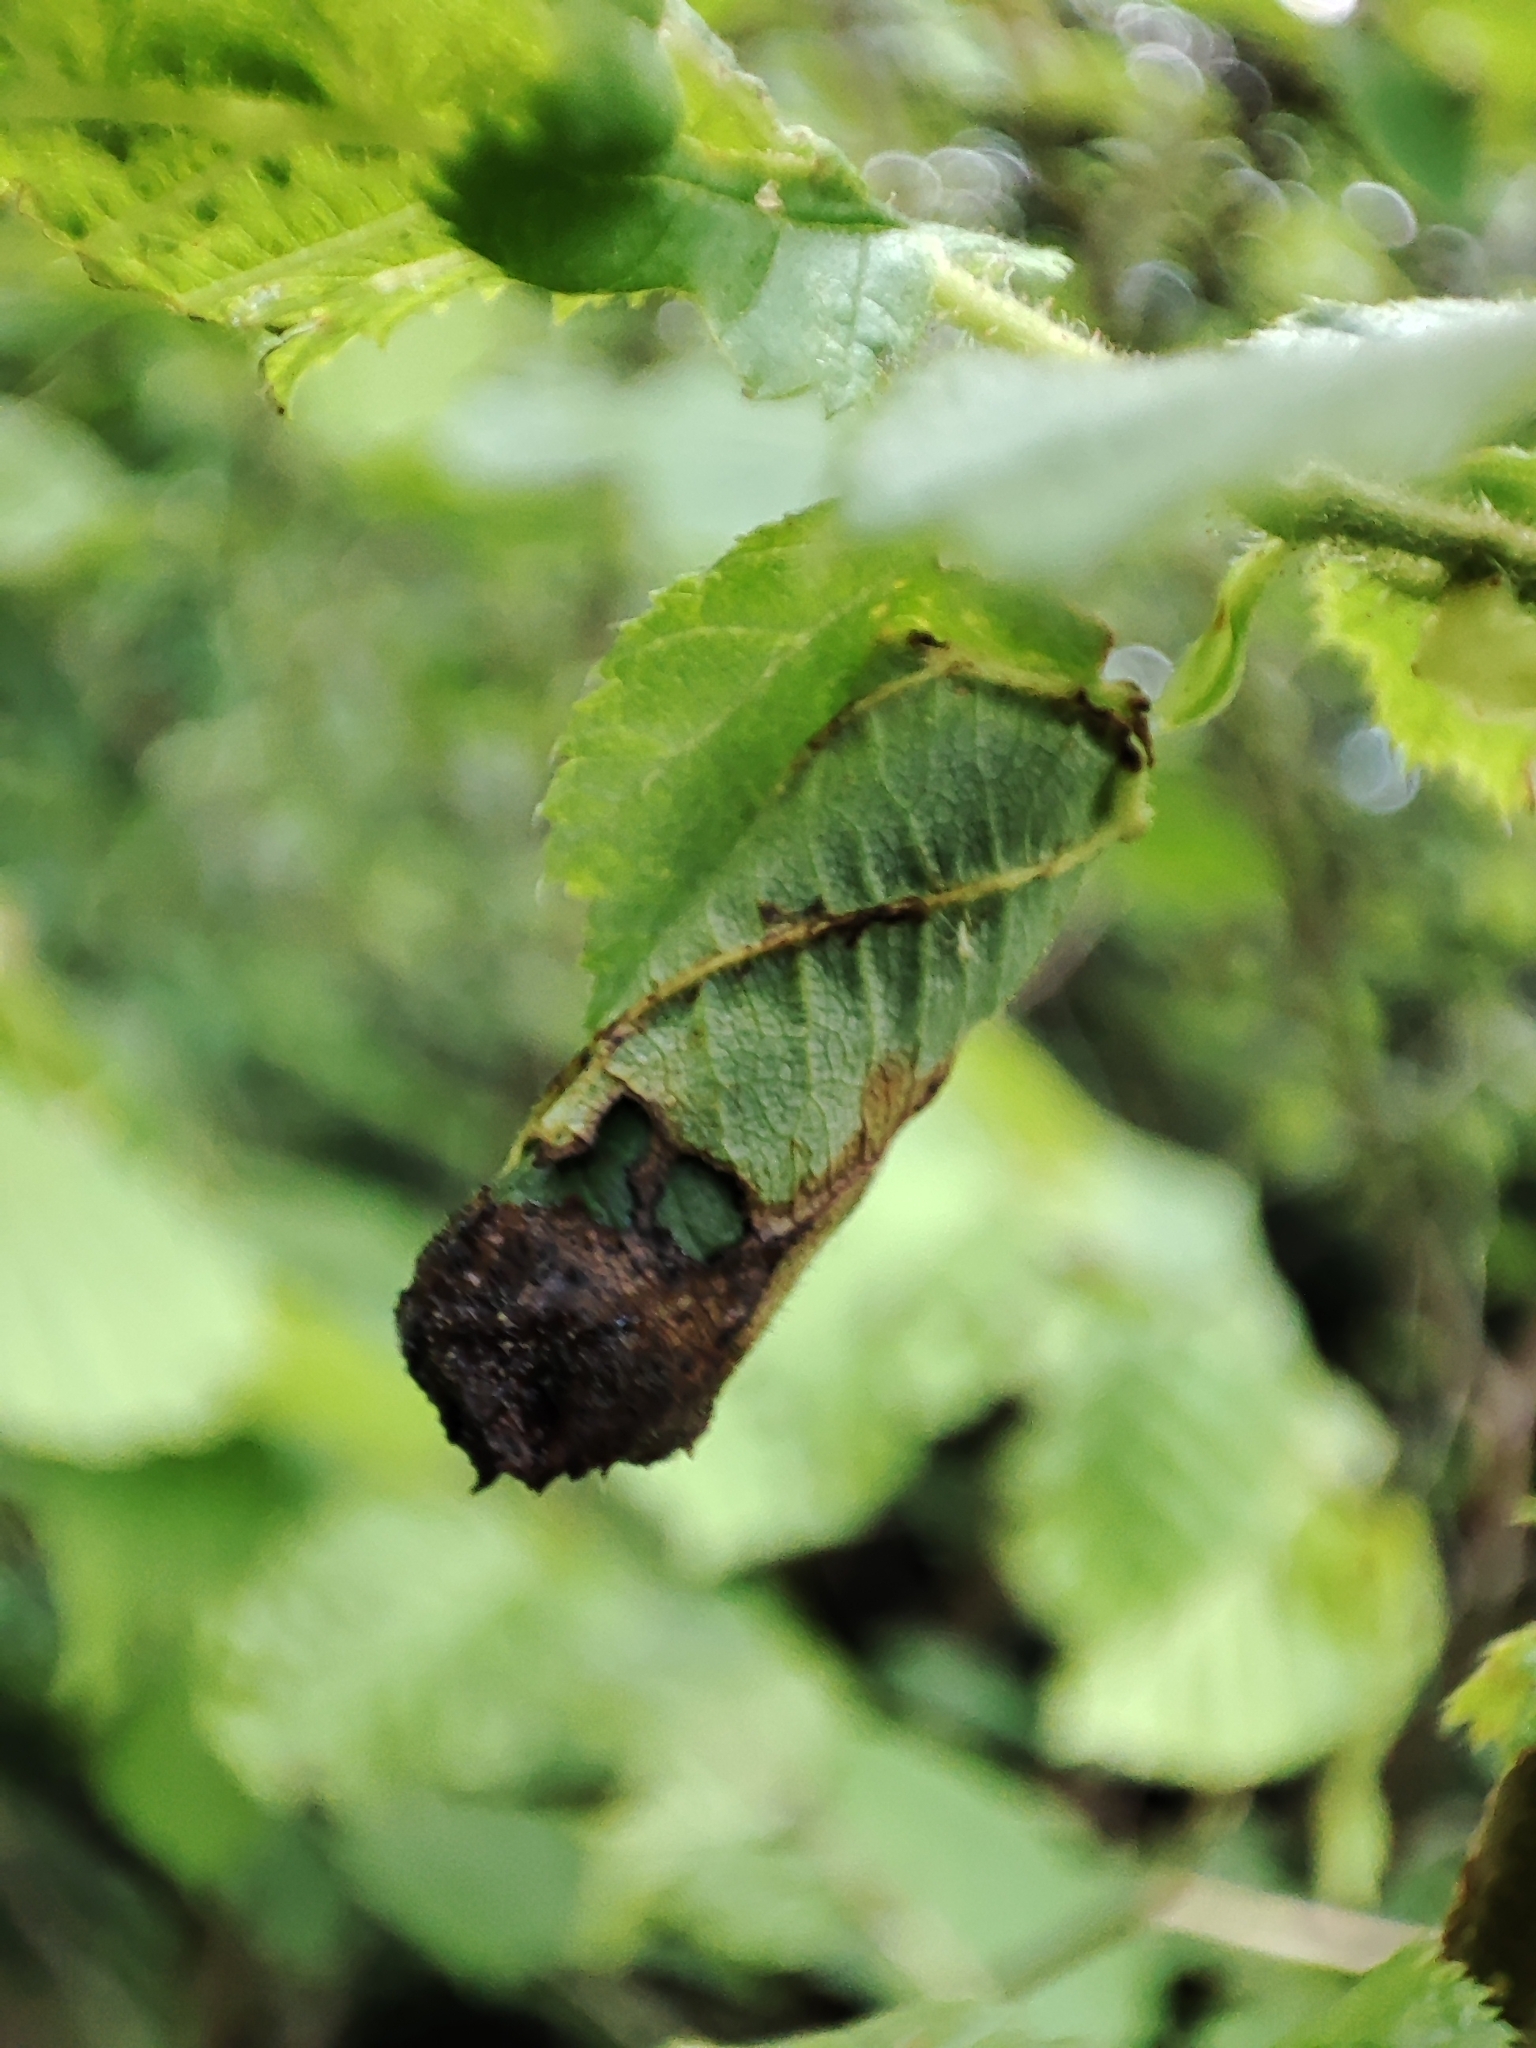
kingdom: Animalia
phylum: Arthropoda
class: Insecta
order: Coleoptera
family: Attelabidae
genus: Apoderus
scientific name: Apoderus coryli
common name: Hazel leaf roller
